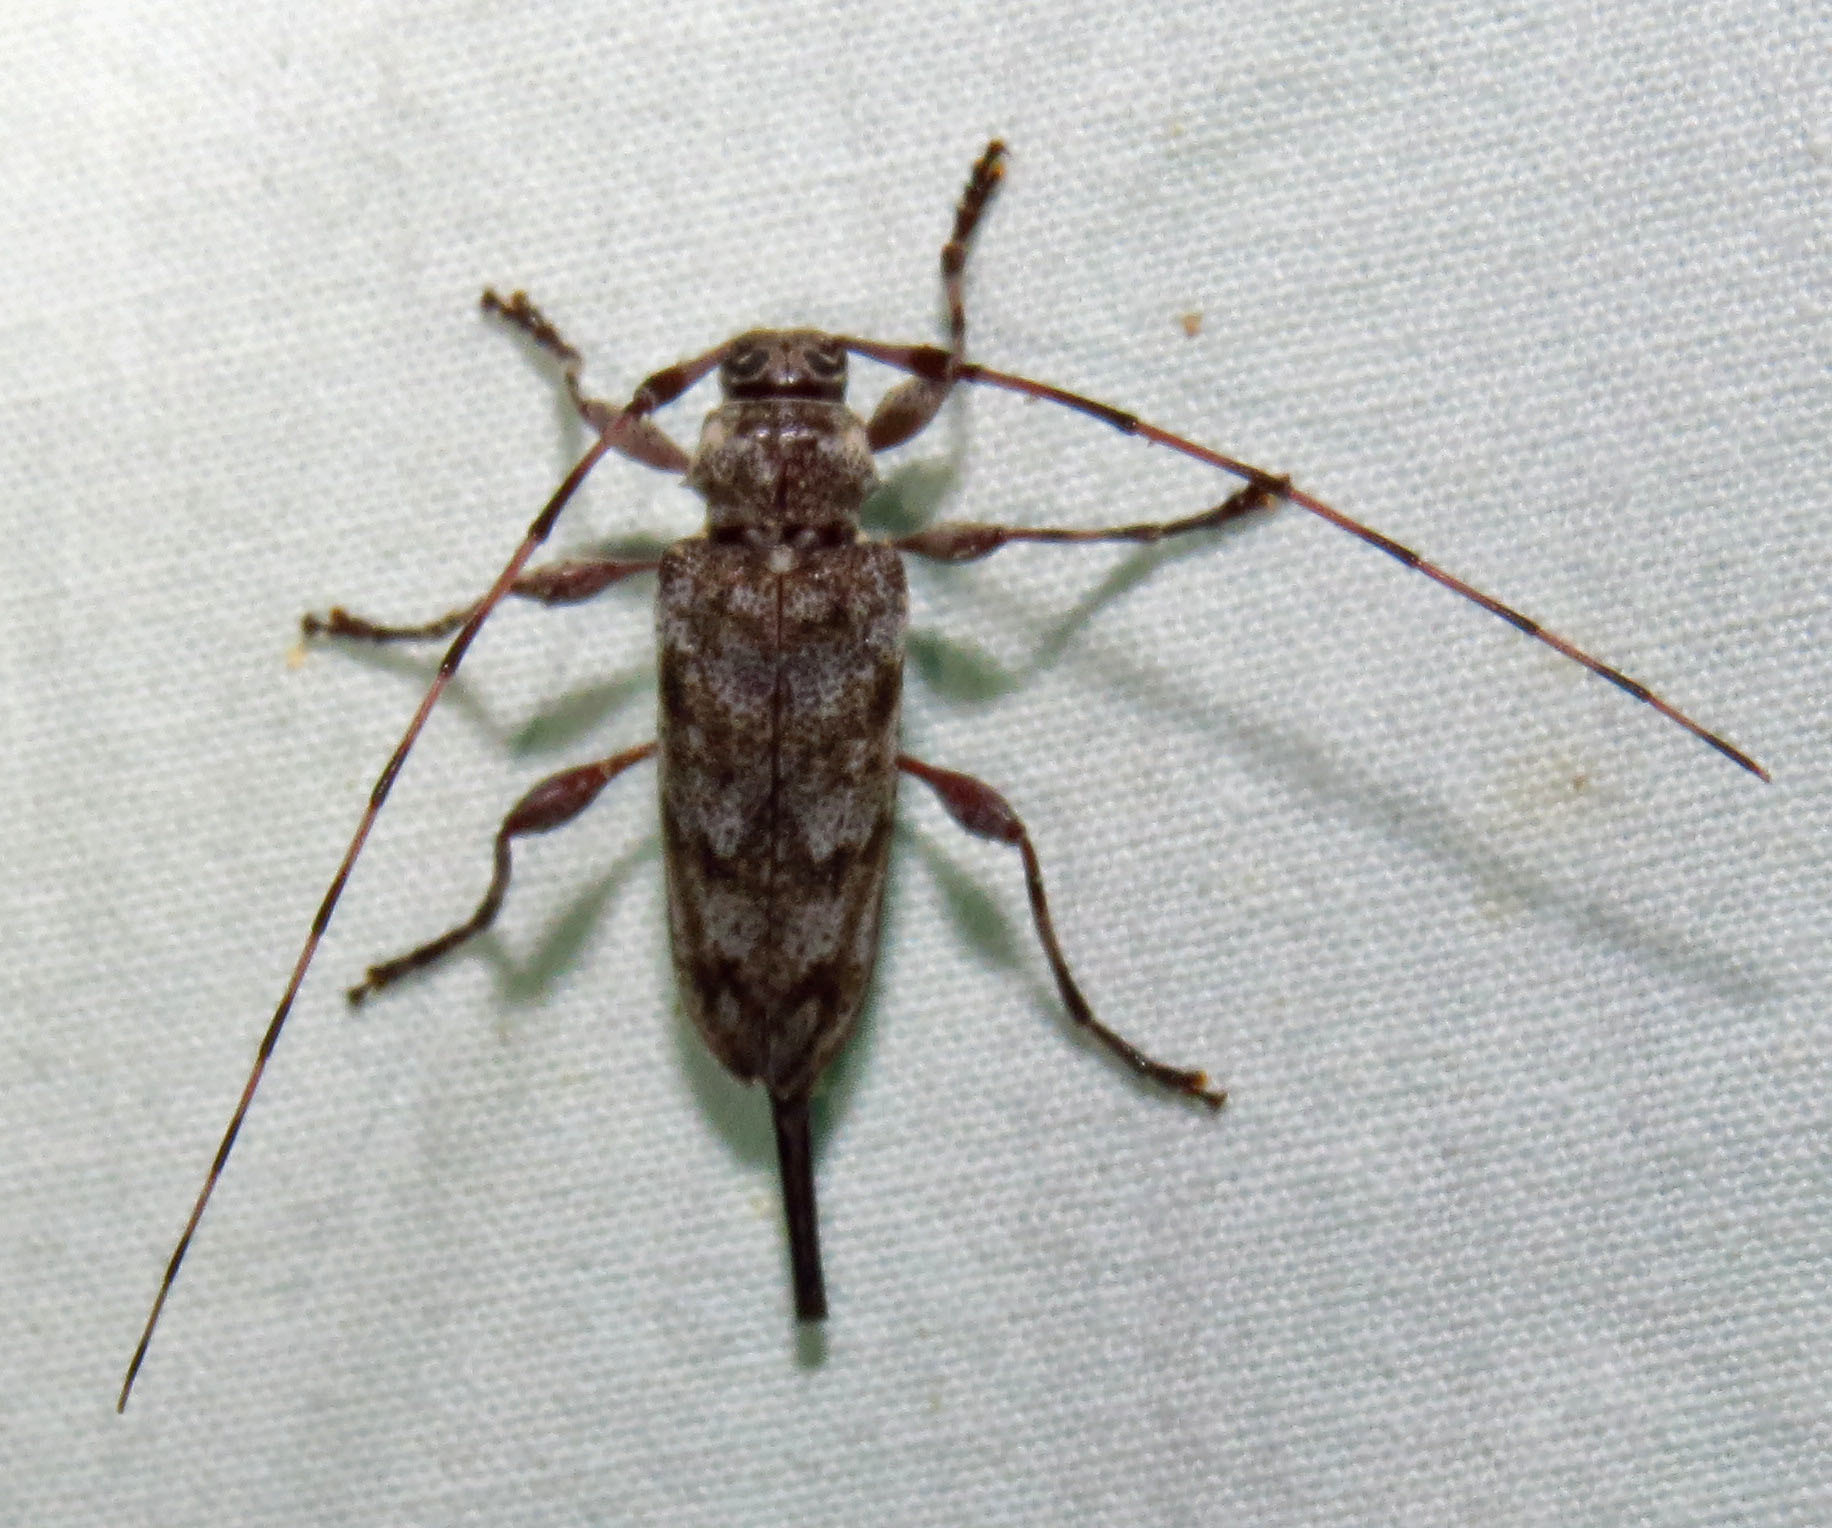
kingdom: Animalia
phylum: Arthropoda
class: Insecta
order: Coleoptera
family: Cerambycidae
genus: Acanthocinus
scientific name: Acanthocinus obsoletus
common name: Roundheaded borer
